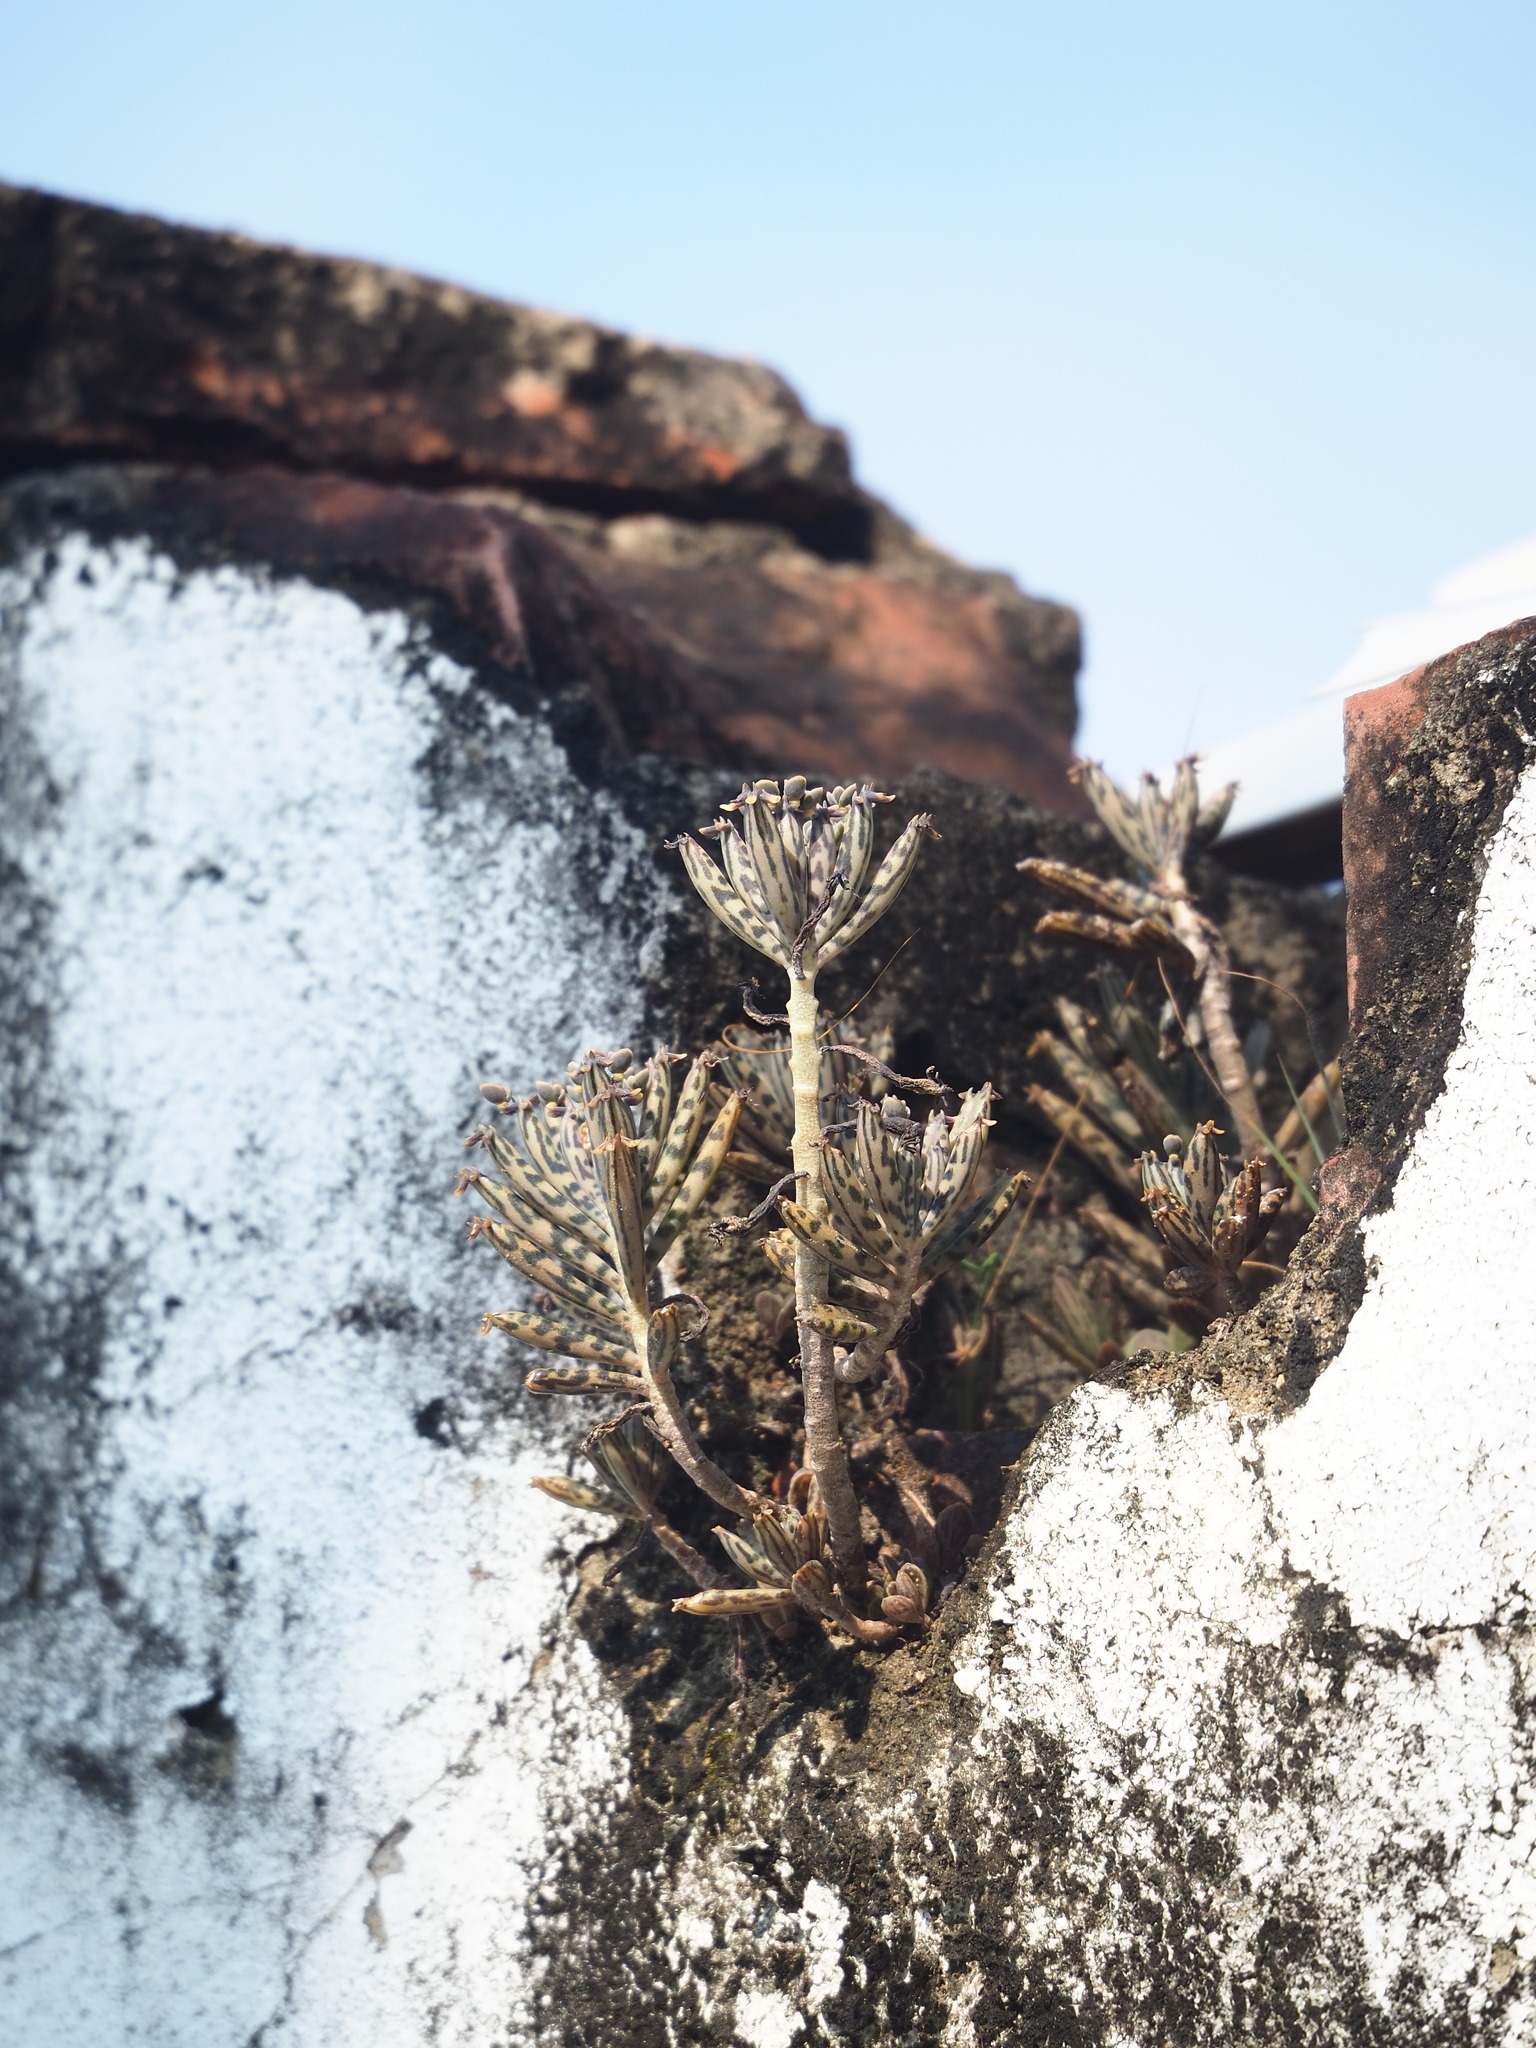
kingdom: Plantae
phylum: Tracheophyta
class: Magnoliopsida
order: Saxifragales
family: Crassulaceae
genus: Kalanchoe
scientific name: Kalanchoe delagoensis
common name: Chandelier plant
